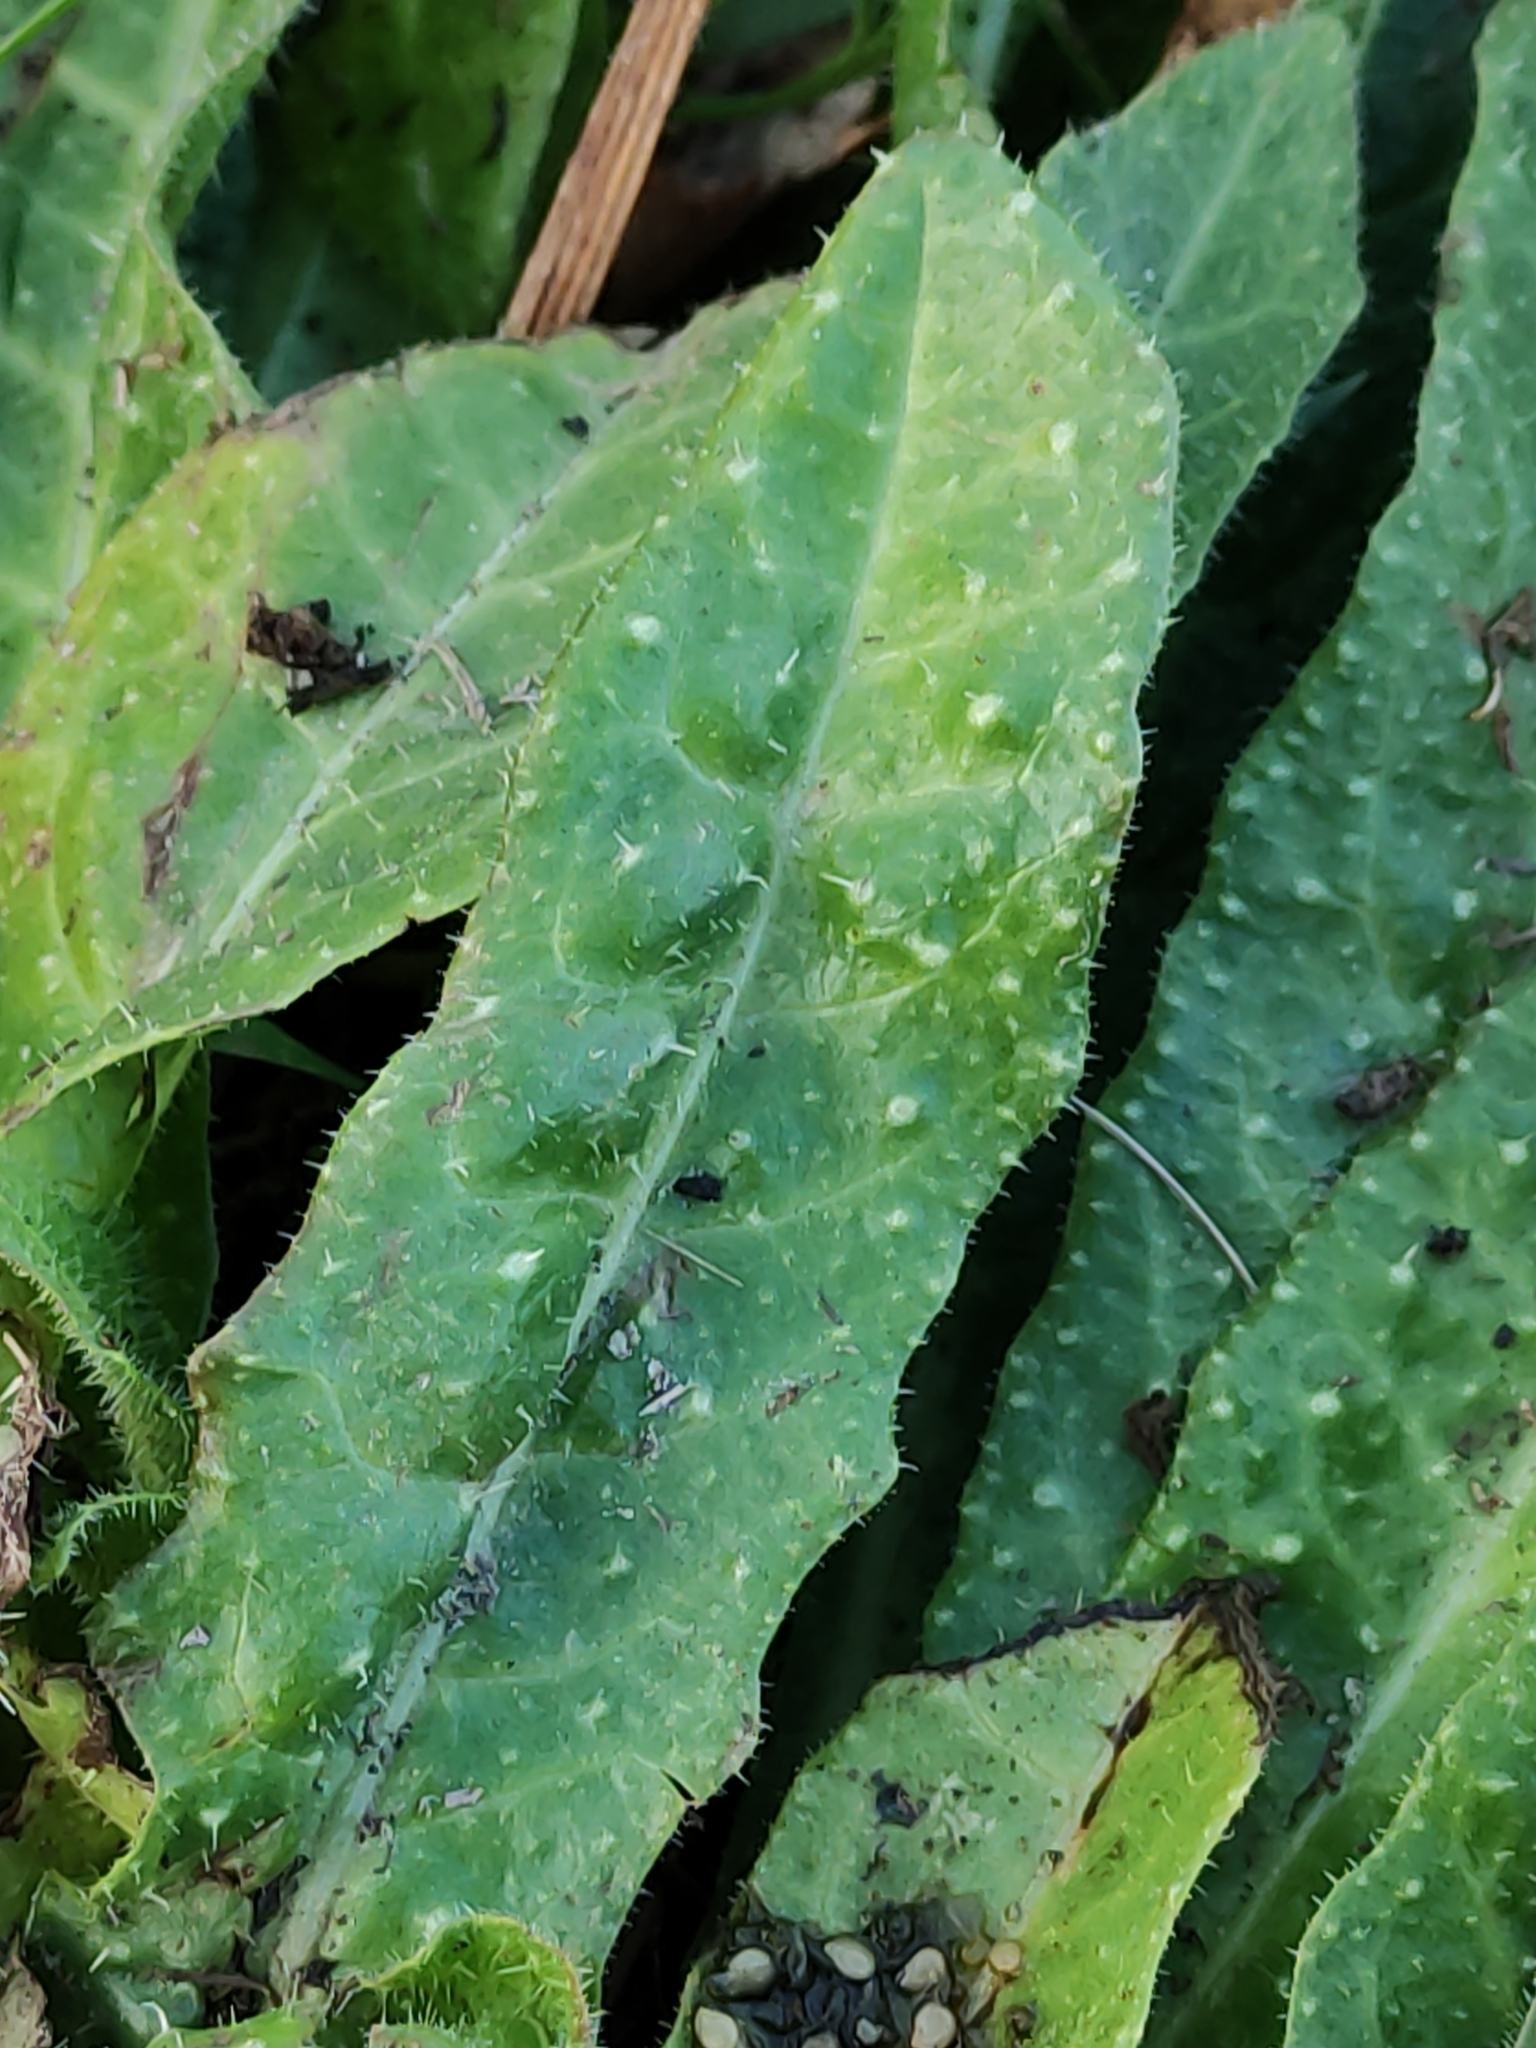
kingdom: Plantae
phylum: Tracheophyta
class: Magnoliopsida
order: Boraginales
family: Boraginaceae
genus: Echium
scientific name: Echium vulgare
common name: Common viper's bugloss
